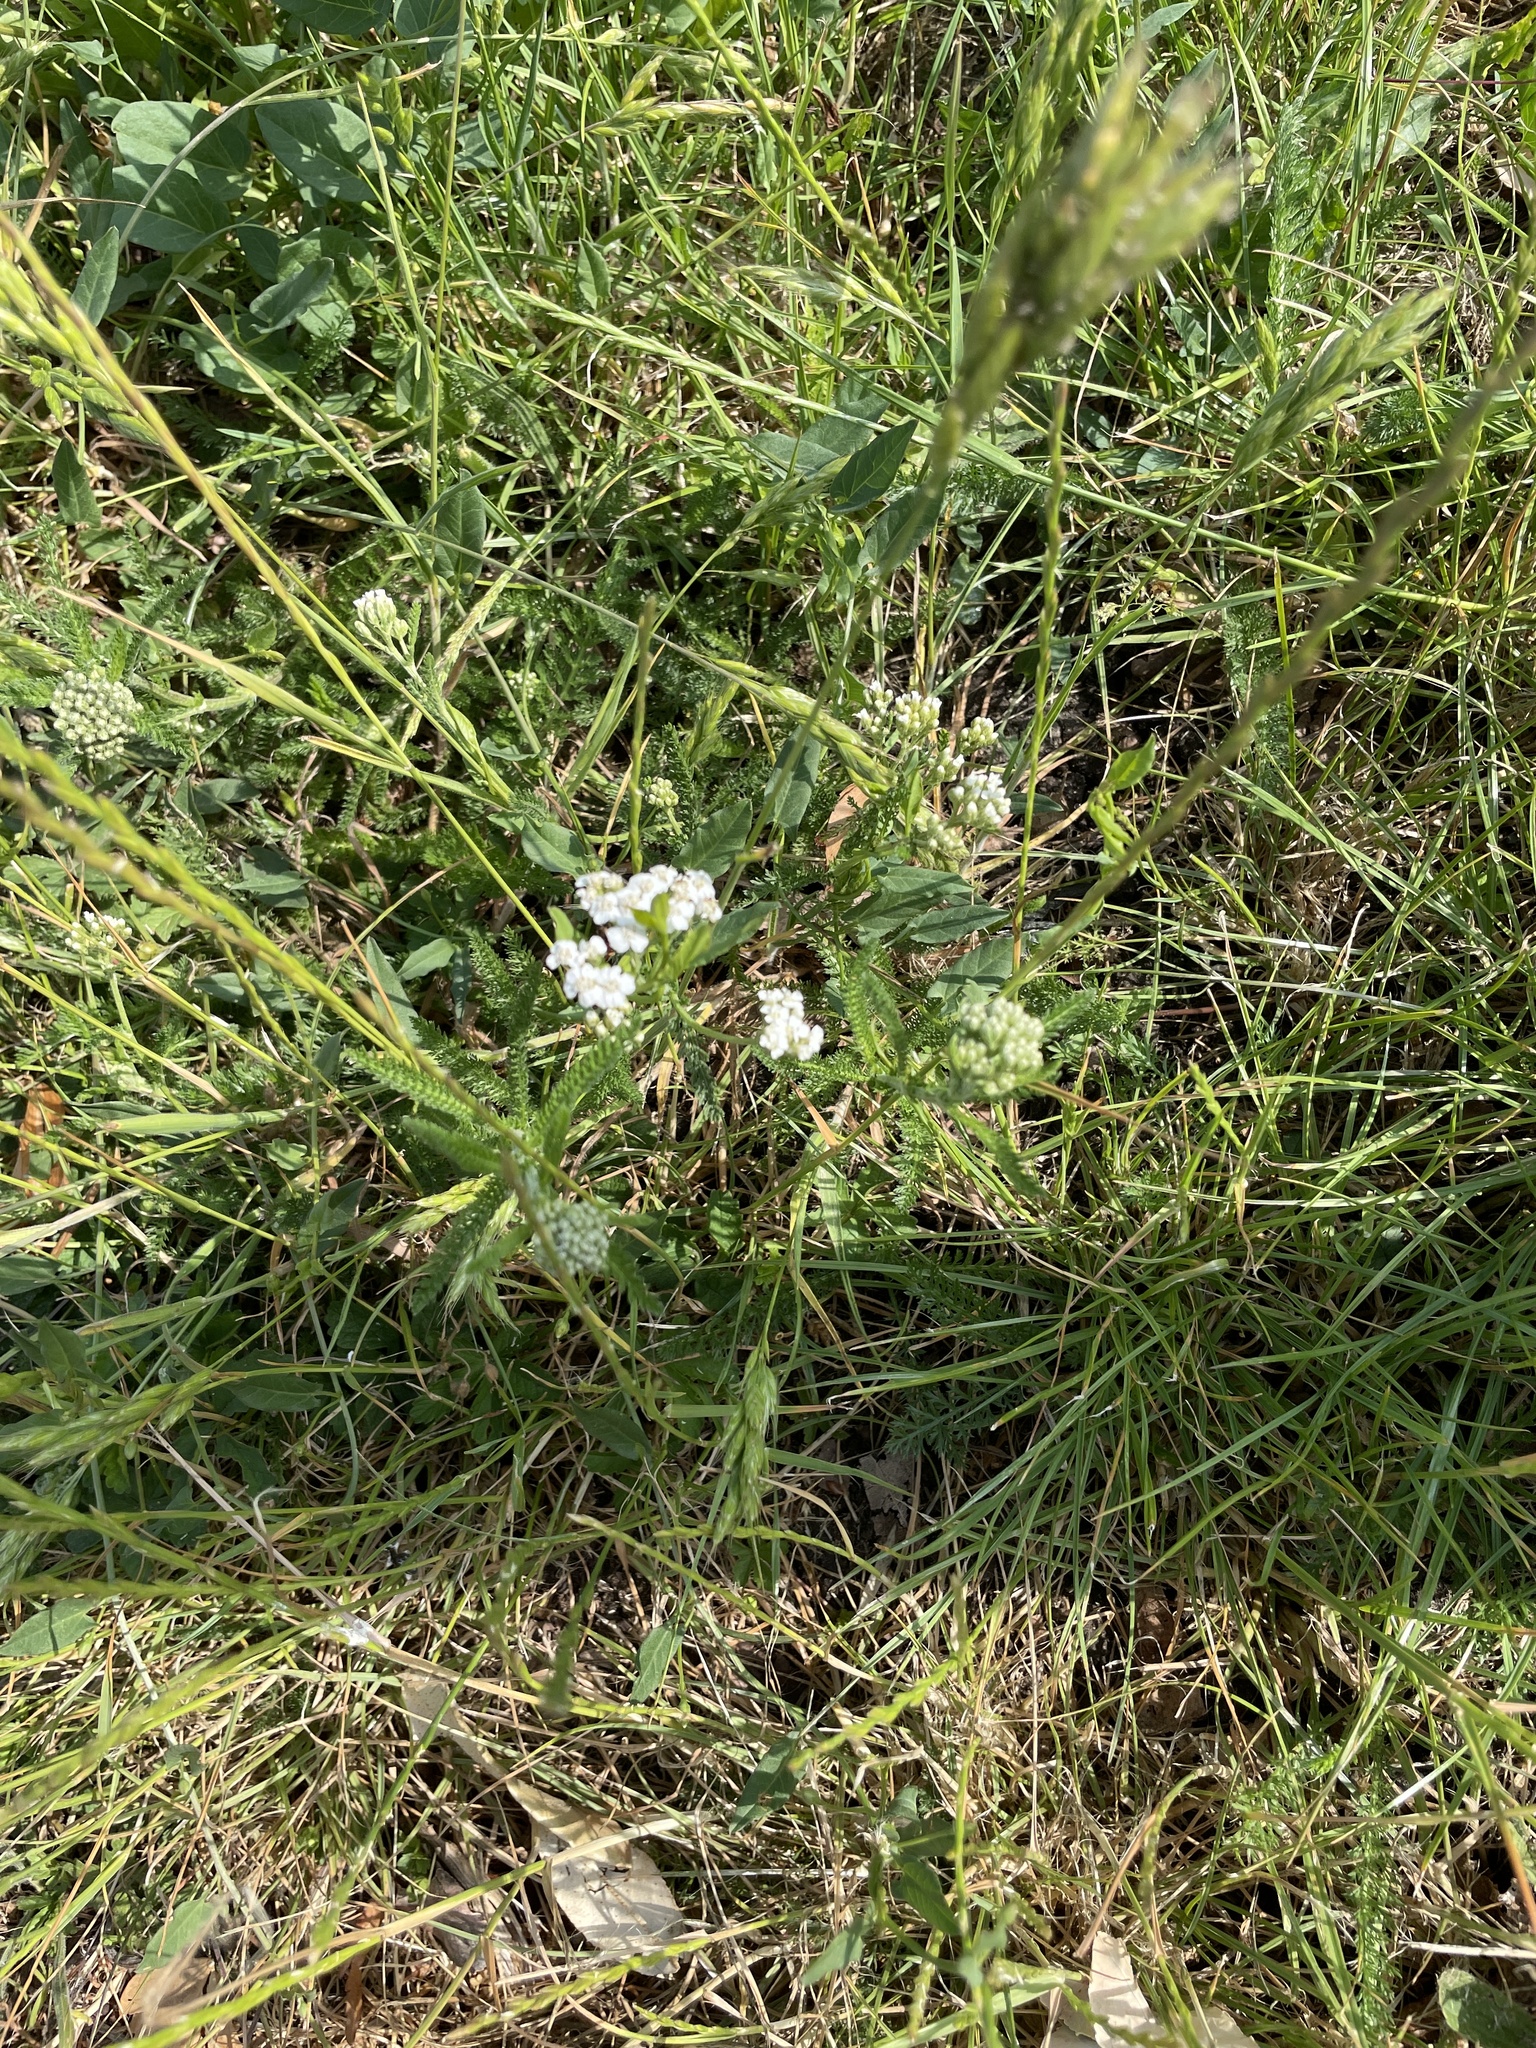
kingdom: Plantae
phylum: Tracheophyta
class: Magnoliopsida
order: Asterales
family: Asteraceae
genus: Achillea
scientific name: Achillea millefolium
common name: Yarrow
